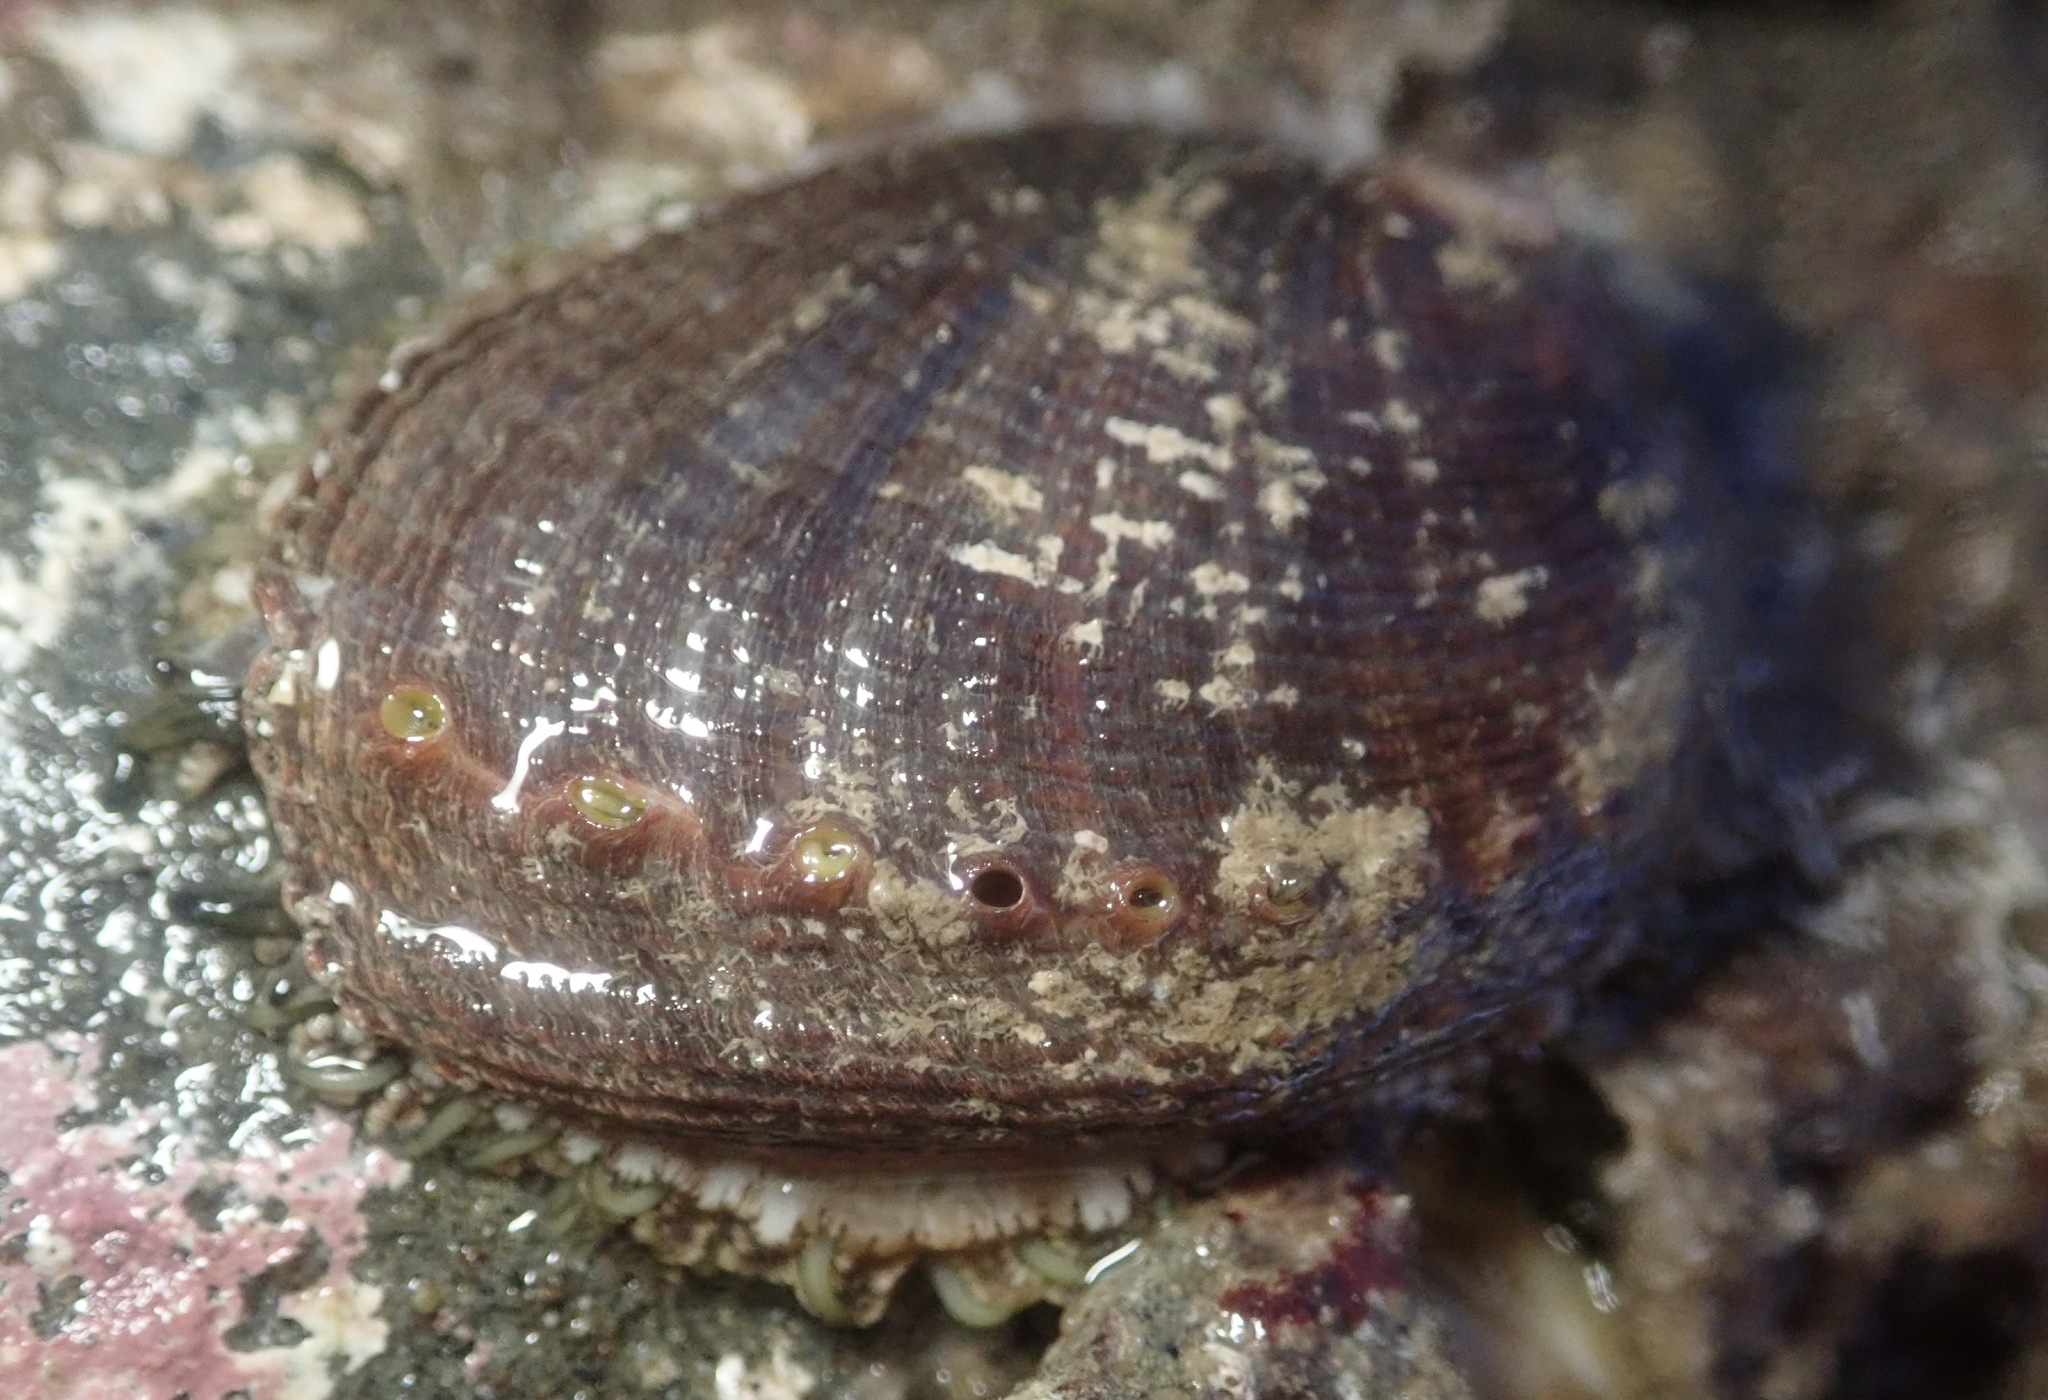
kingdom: Animalia
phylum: Mollusca
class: Gastropoda
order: Lepetellida
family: Haliotidae
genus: Haliotis
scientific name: Haliotis fulgens
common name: Green abalone
